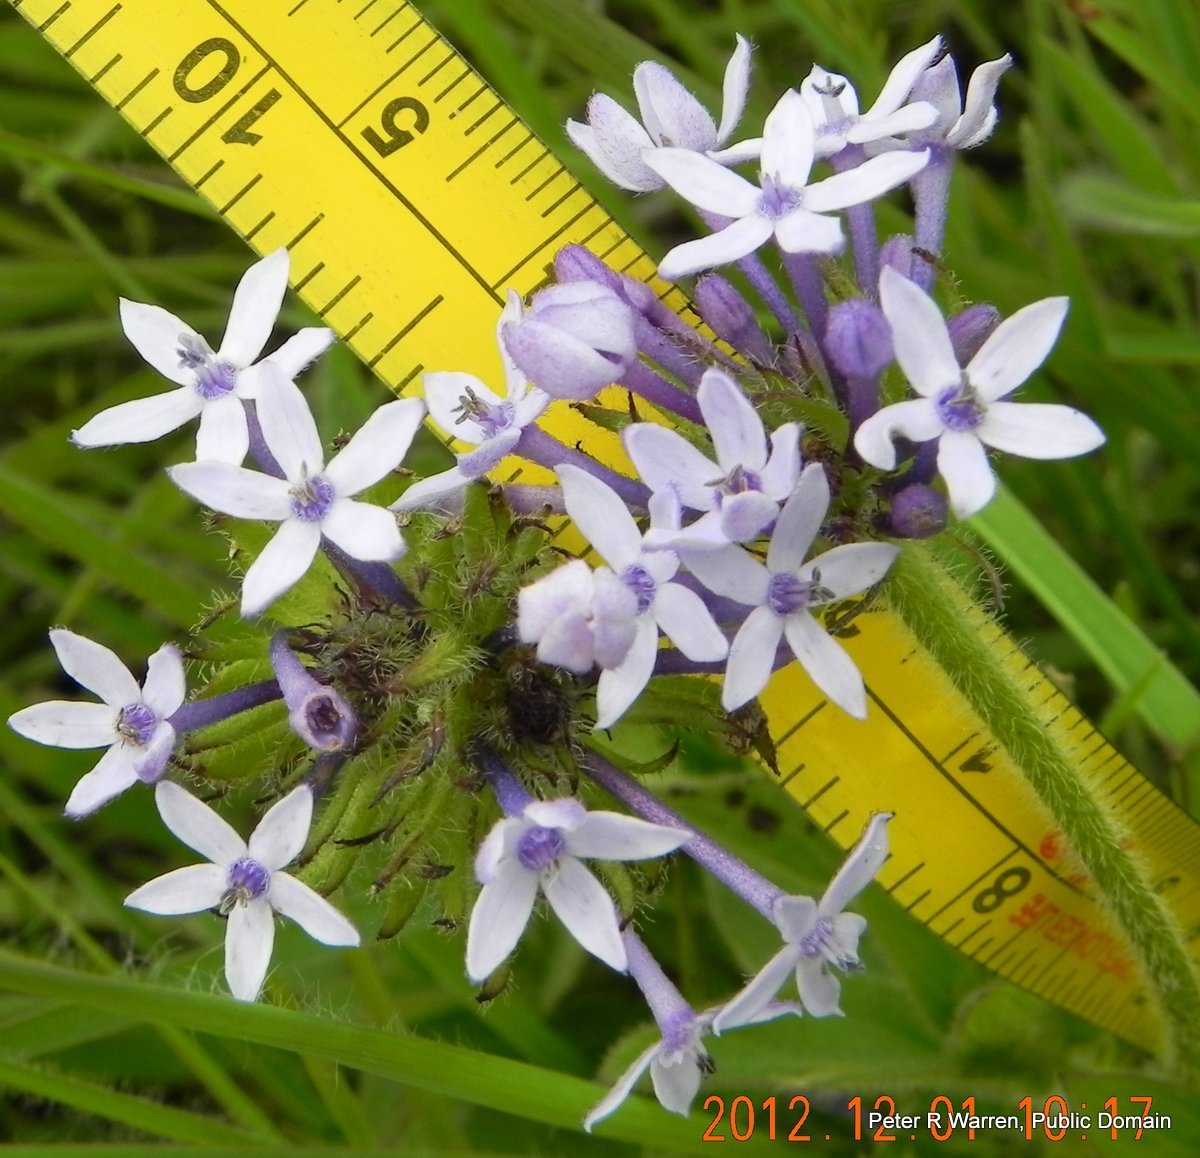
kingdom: Plantae
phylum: Tracheophyta
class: Magnoliopsida
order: Gentianales
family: Rubiaceae
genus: Pentanisia
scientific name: Pentanisia prunelloides
